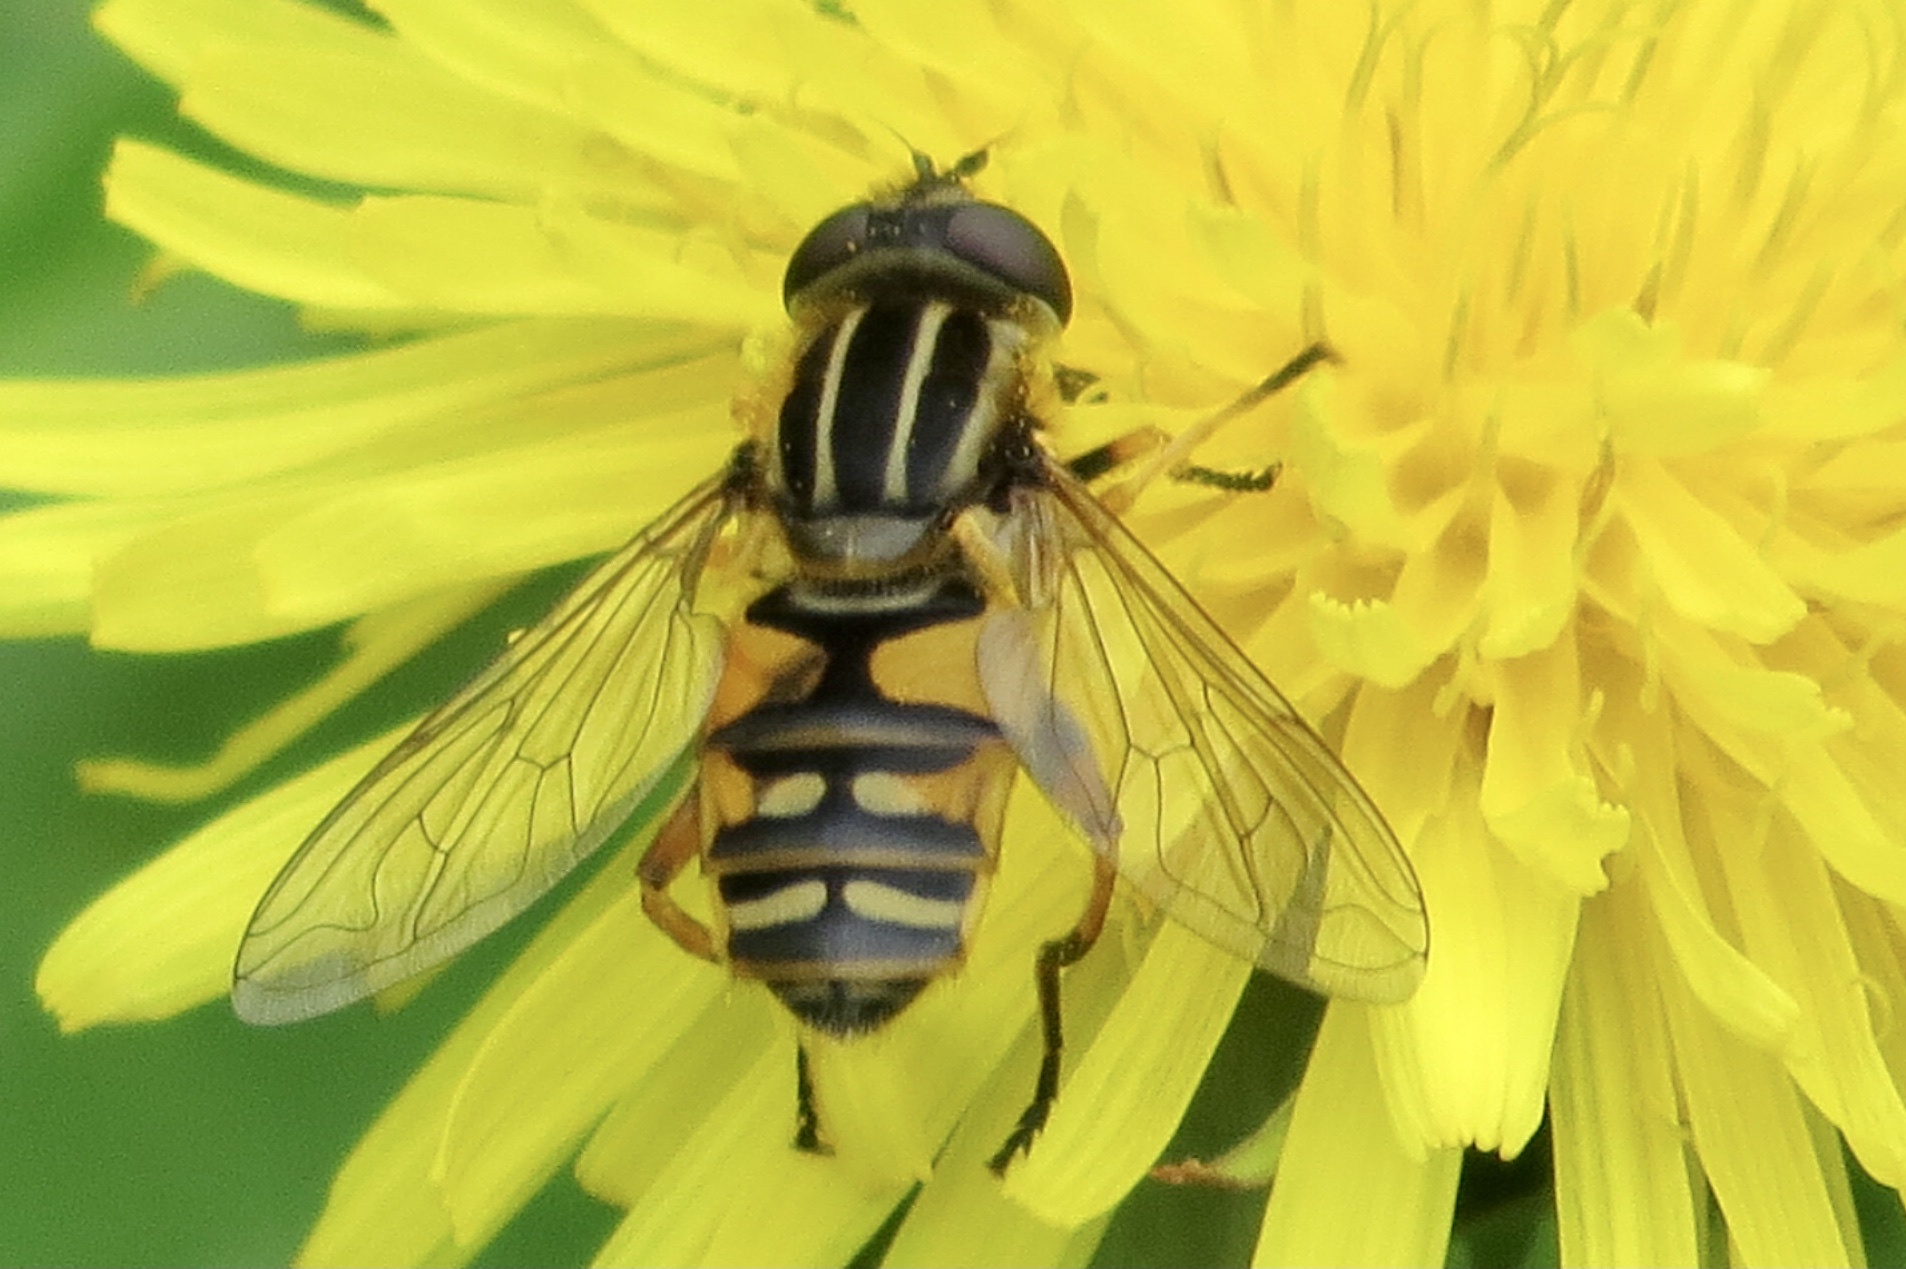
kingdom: Animalia
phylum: Arthropoda
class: Insecta
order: Diptera
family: Syrphidae
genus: Helophilus
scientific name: Helophilus pendulus
